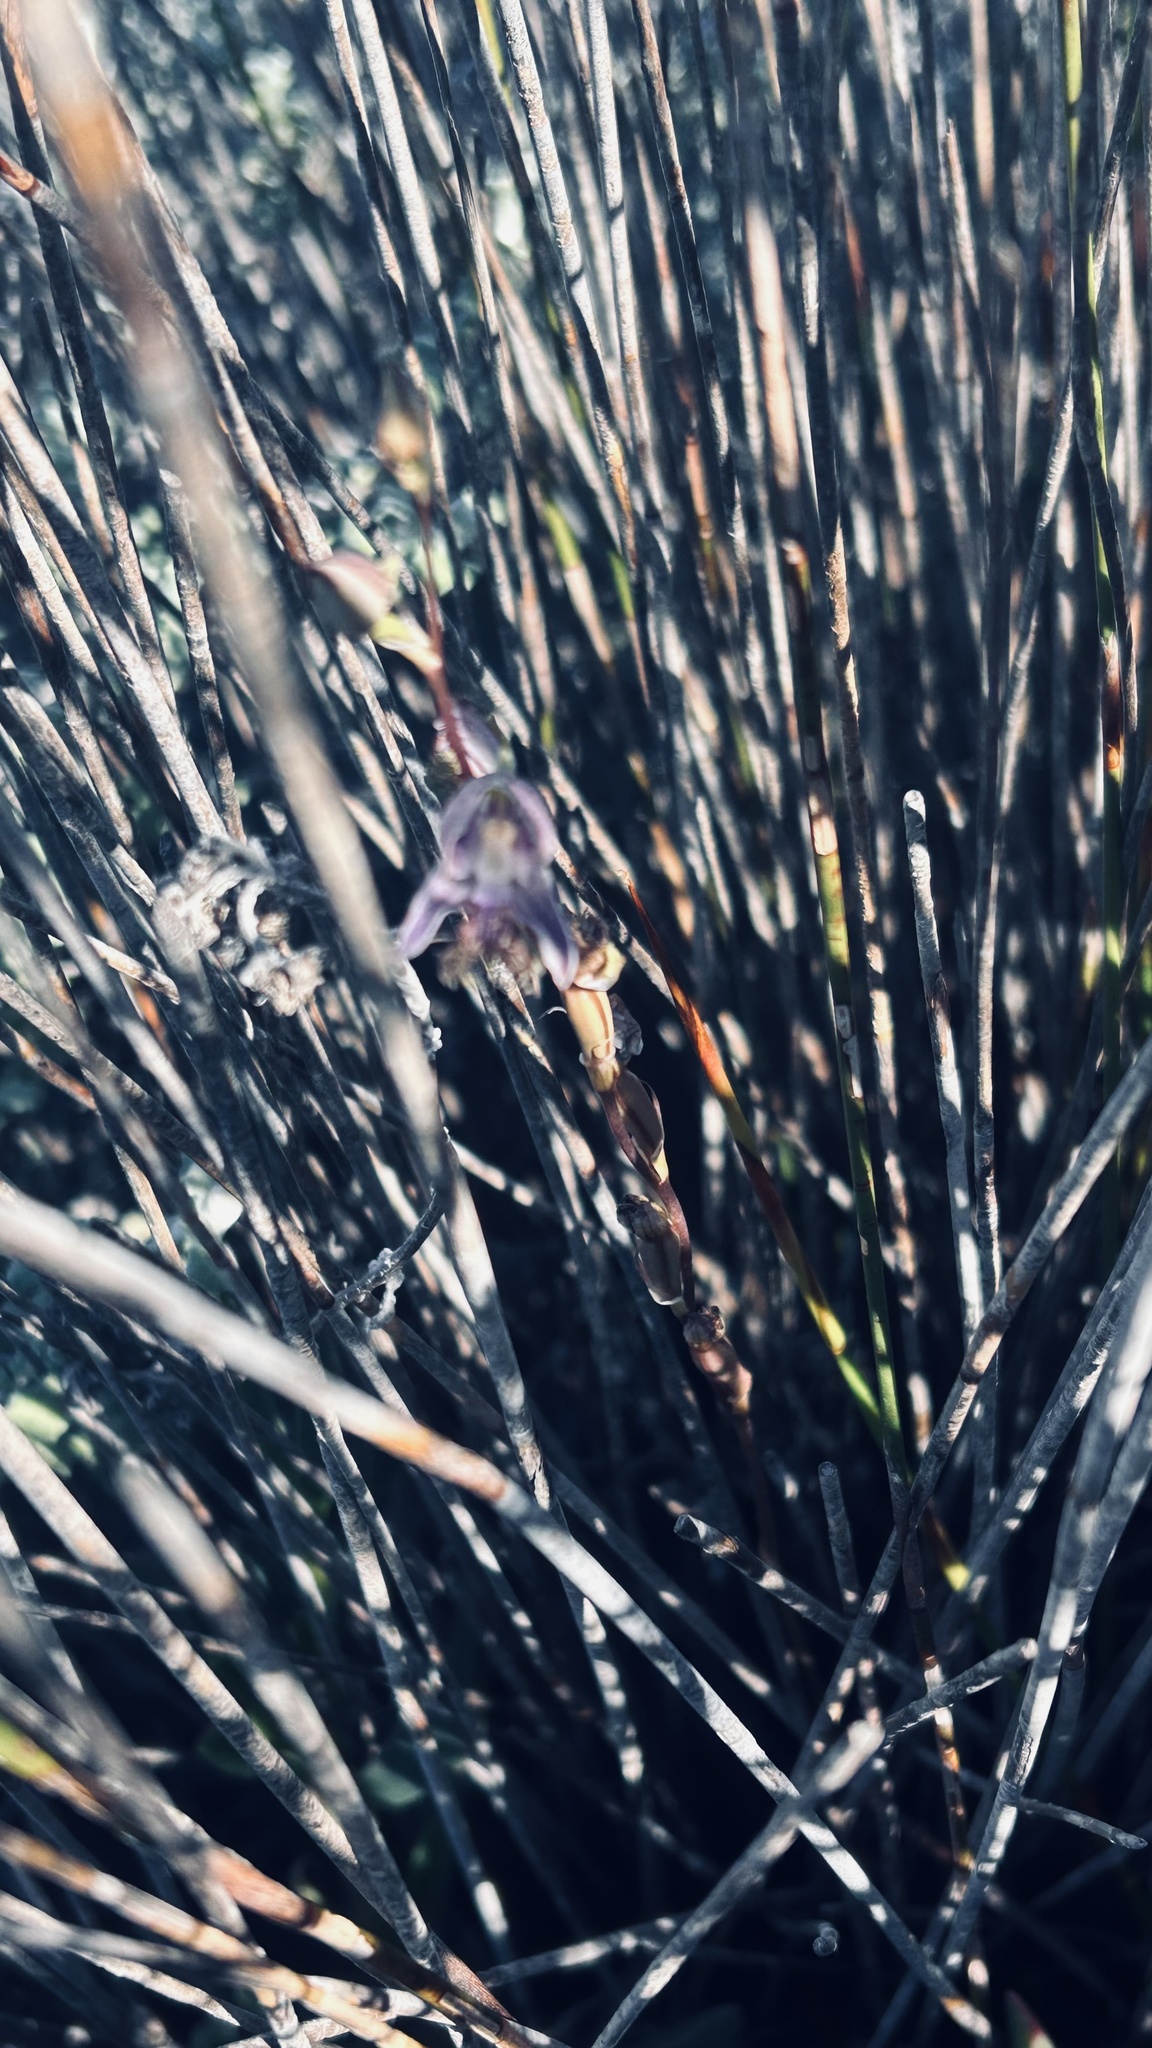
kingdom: Plantae
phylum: Tracheophyta
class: Liliopsida
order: Asparagales
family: Orchidaceae
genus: Disa
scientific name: Disa lugens
